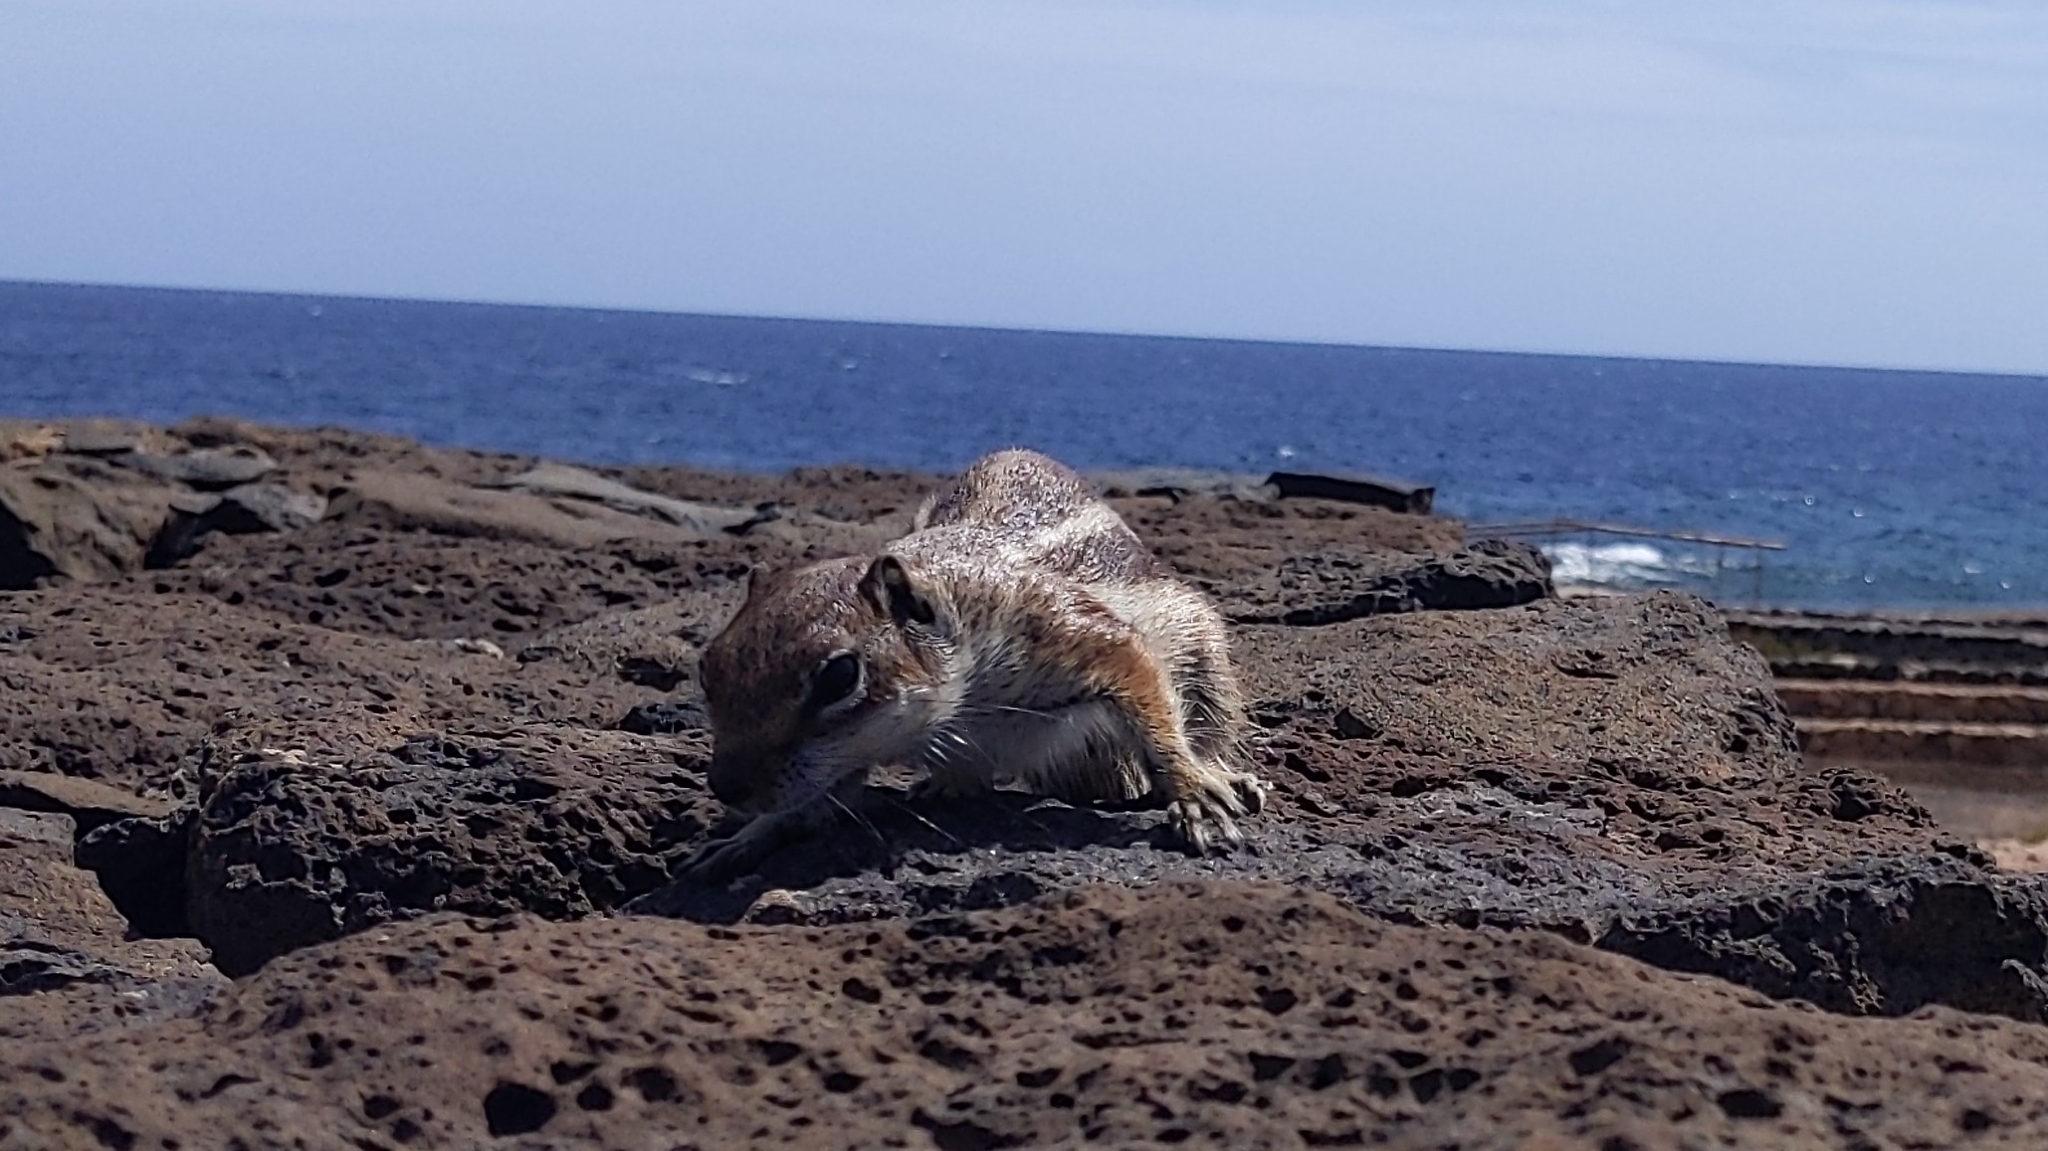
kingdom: Animalia
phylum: Chordata
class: Mammalia
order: Rodentia
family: Sciuridae
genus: Atlantoxerus
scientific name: Atlantoxerus getulus
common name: Barbary ground squirrel
